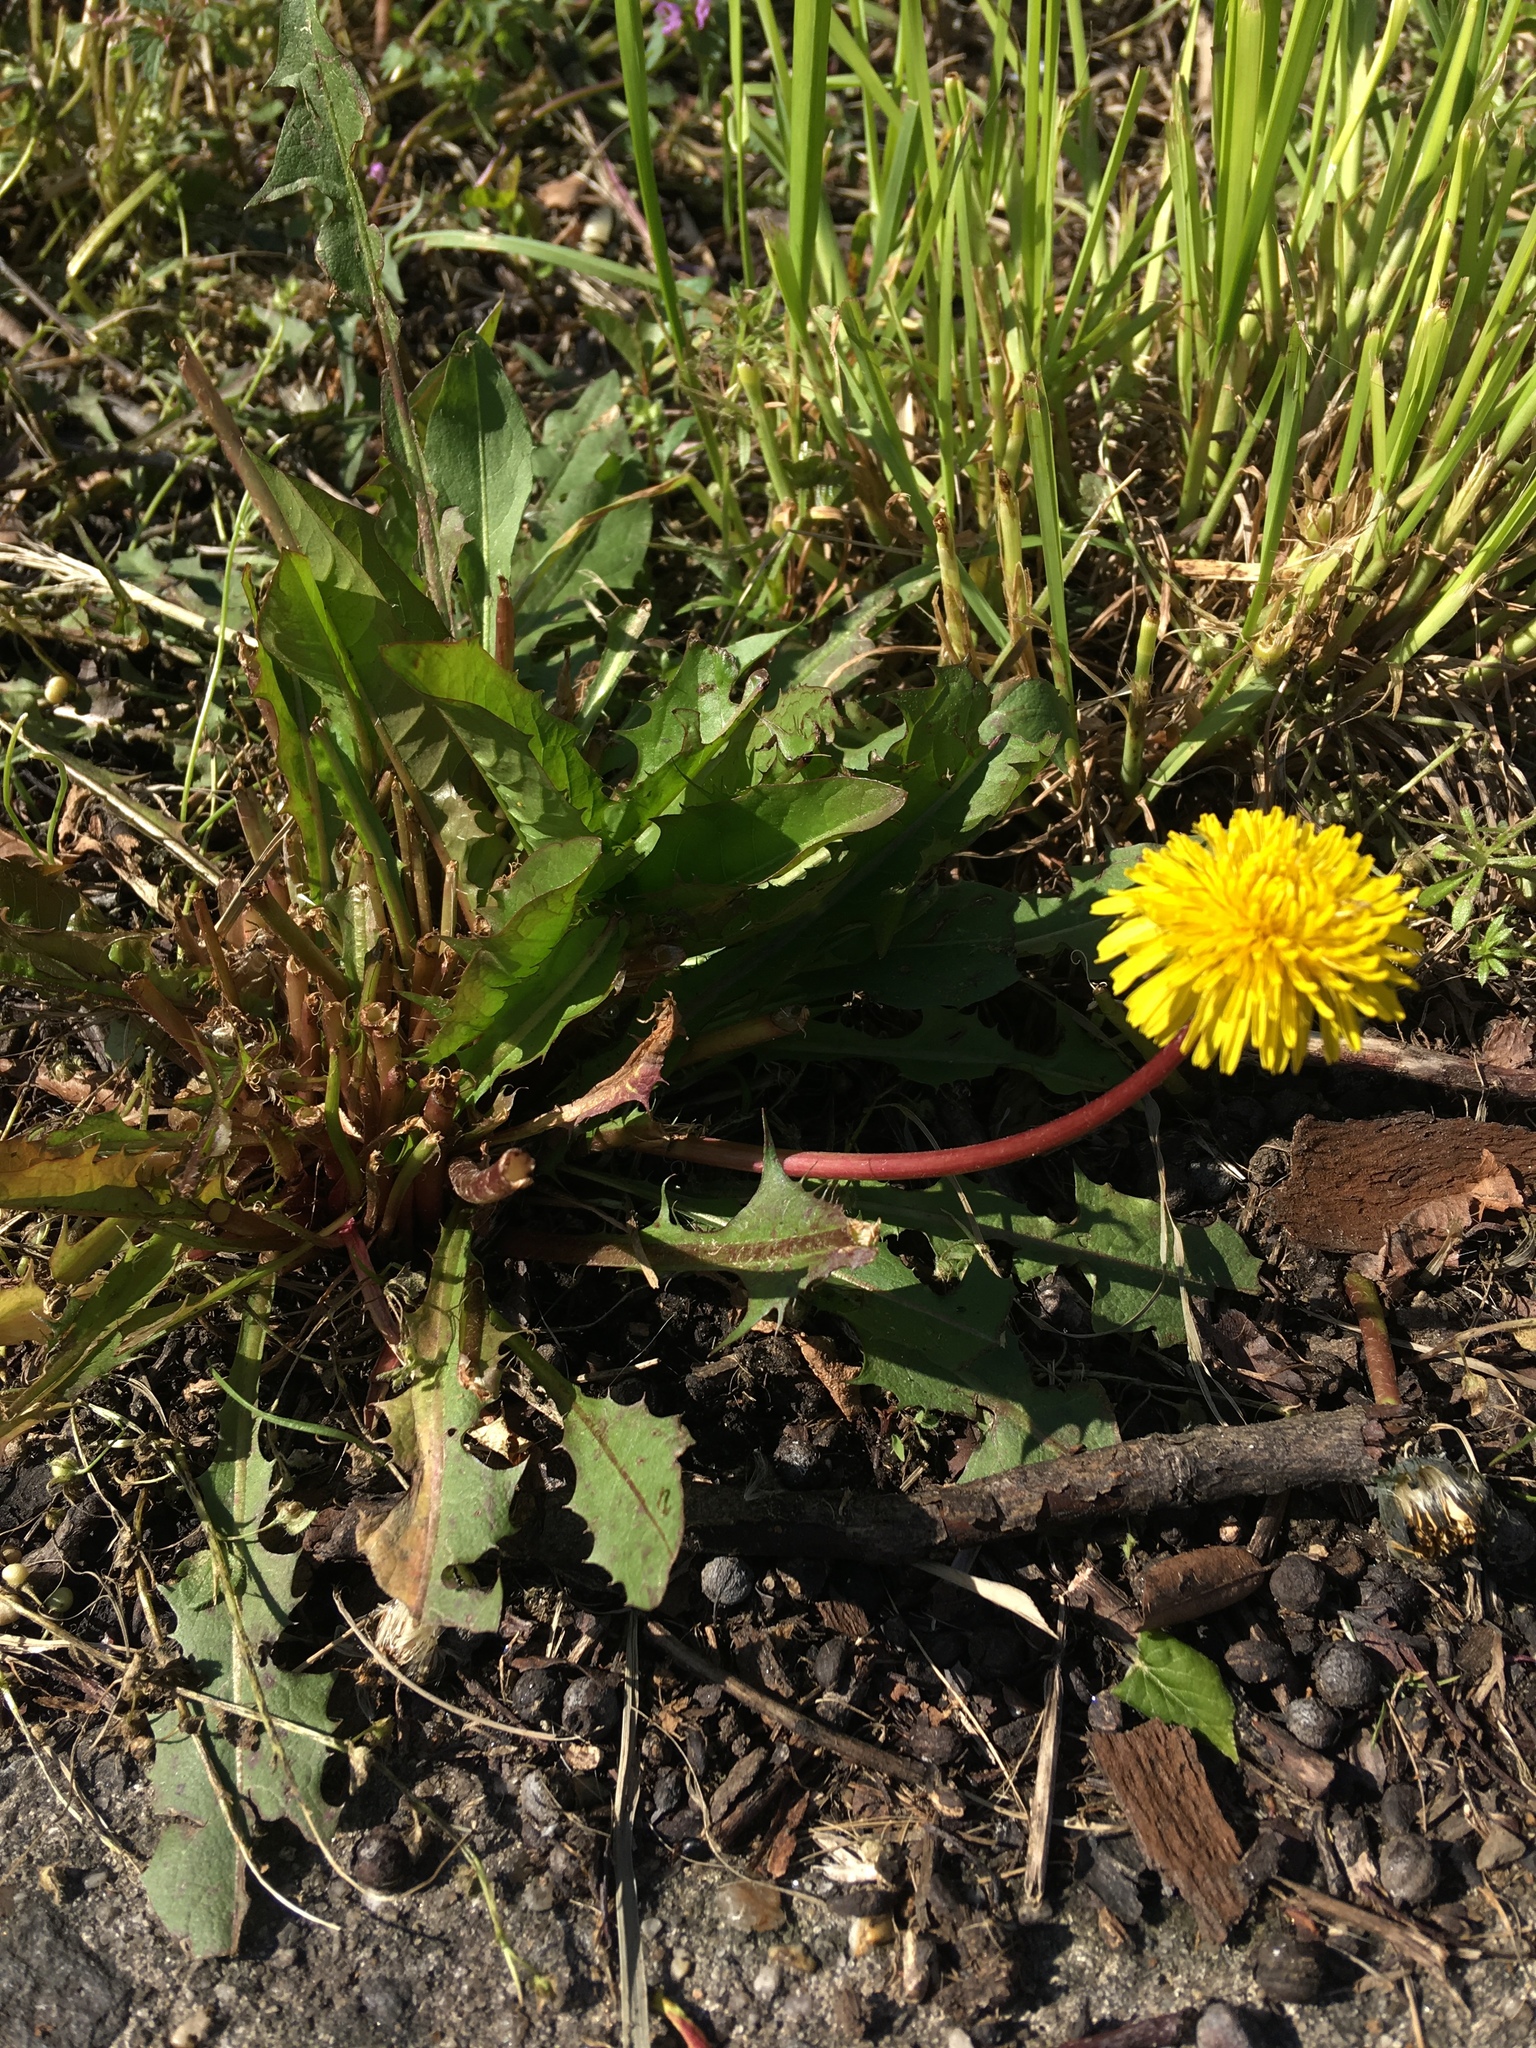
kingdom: Plantae
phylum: Tracheophyta
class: Magnoliopsida
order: Asterales
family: Asteraceae
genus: Taraxacum
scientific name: Taraxacum officinale
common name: Common dandelion
